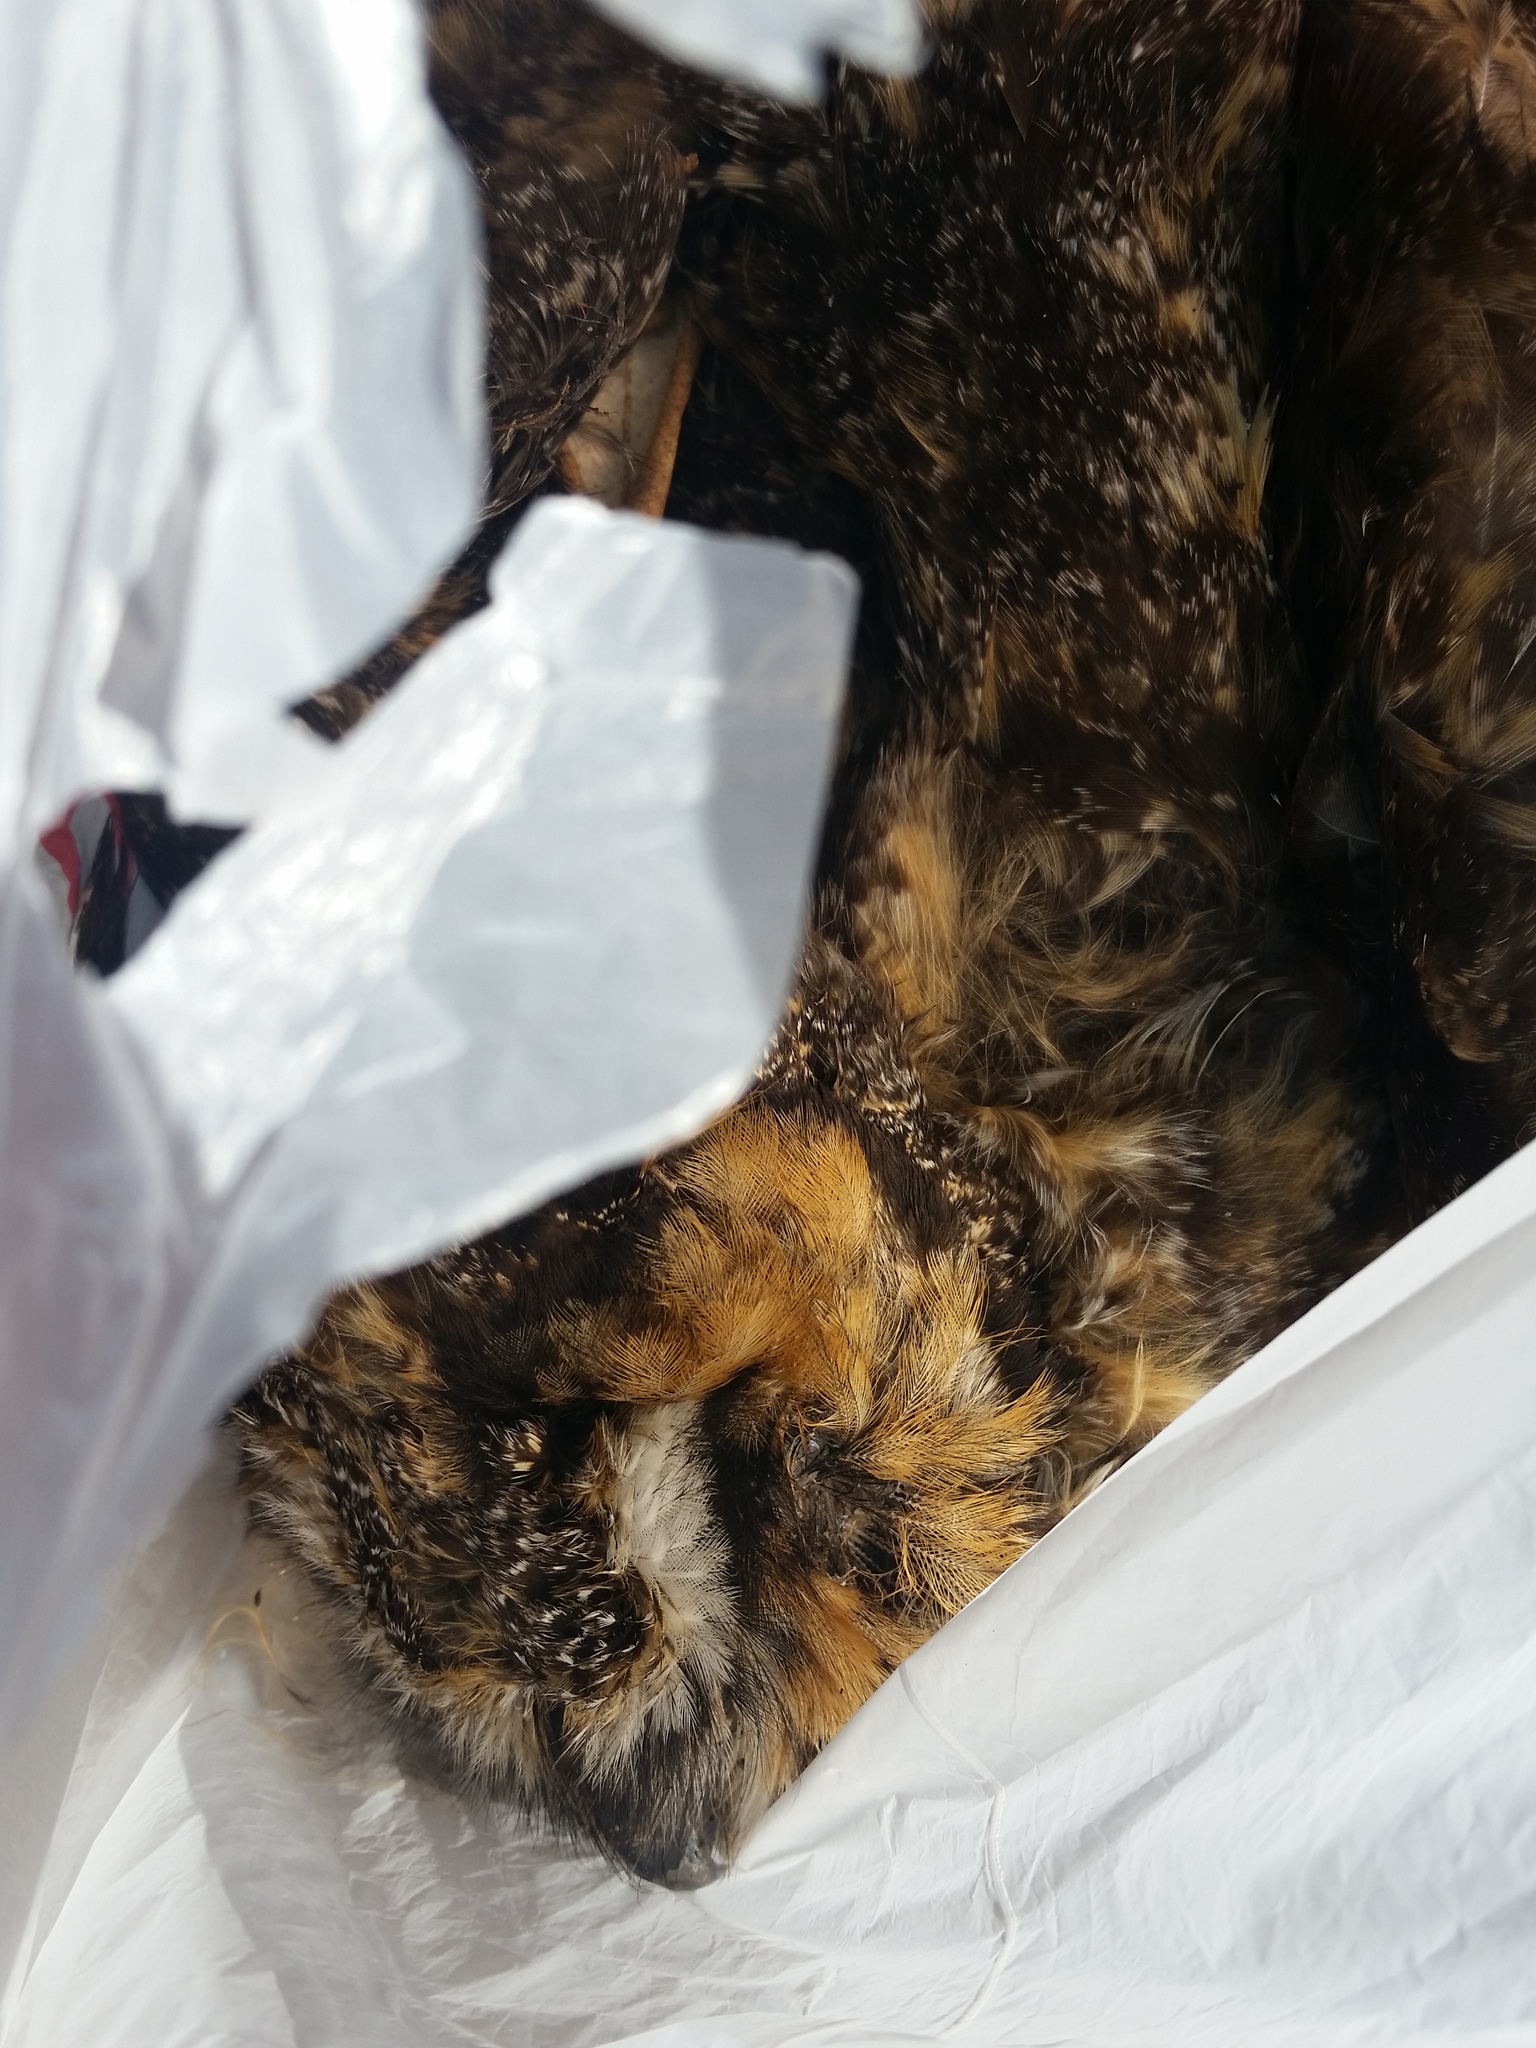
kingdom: Animalia
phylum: Chordata
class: Aves
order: Strigiformes
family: Strigidae
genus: Asio
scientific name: Asio otus
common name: Long-eared owl
